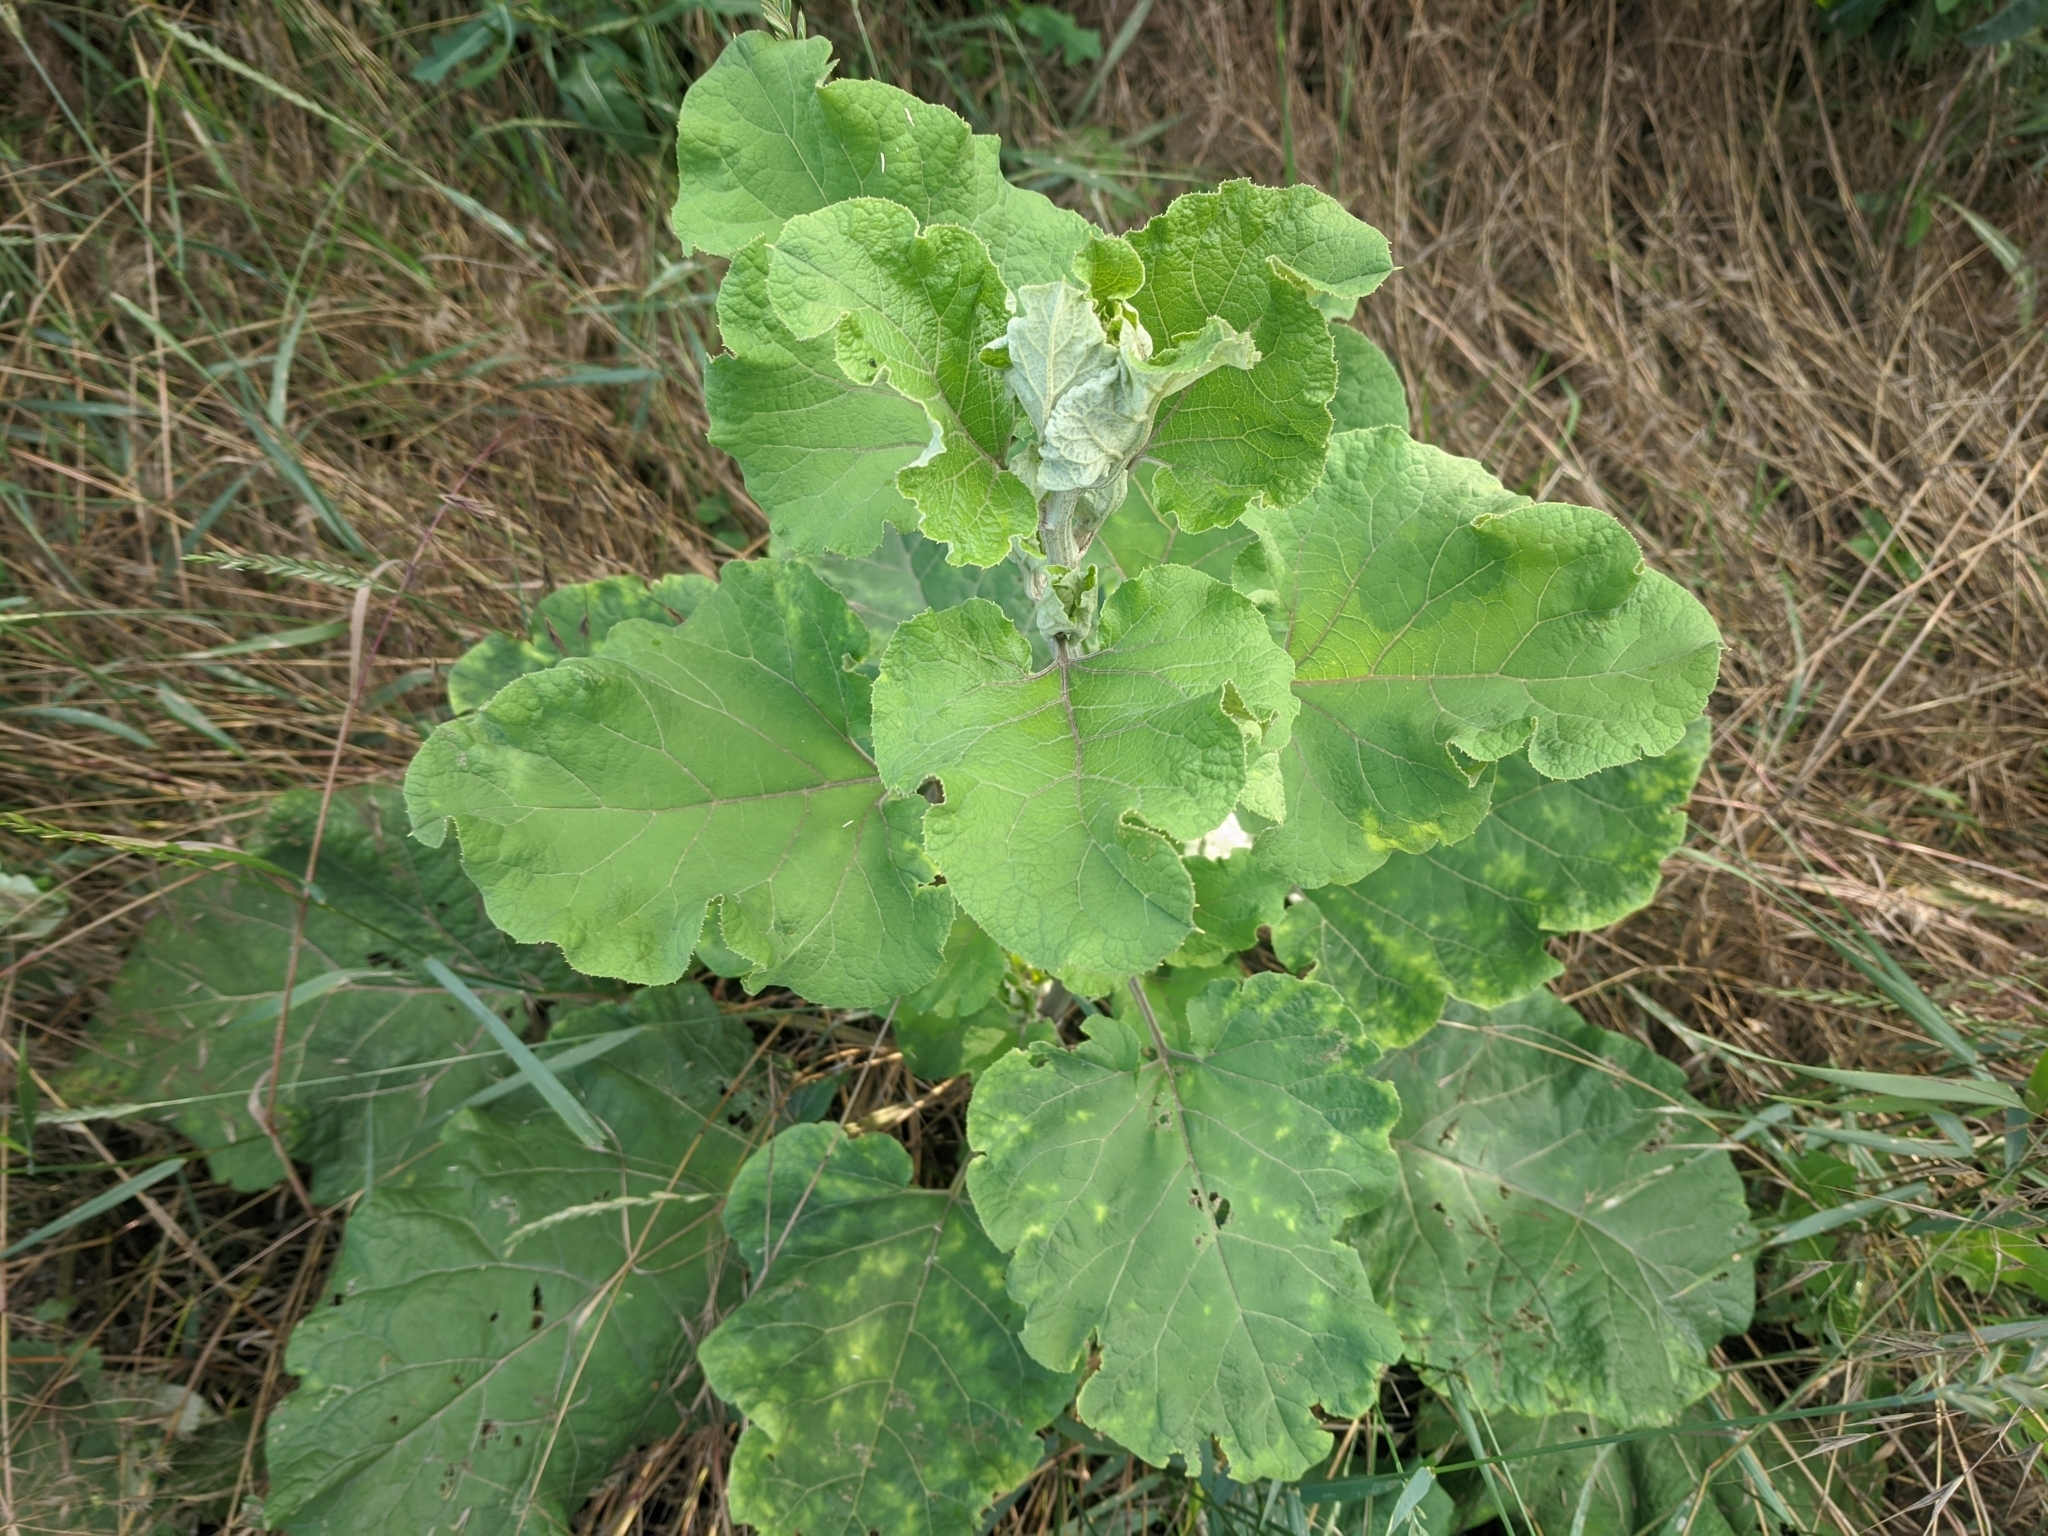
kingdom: Plantae
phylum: Tracheophyta
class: Magnoliopsida
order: Asterales
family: Asteraceae
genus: Arctium
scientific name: Arctium lappa
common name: Greater burdock
